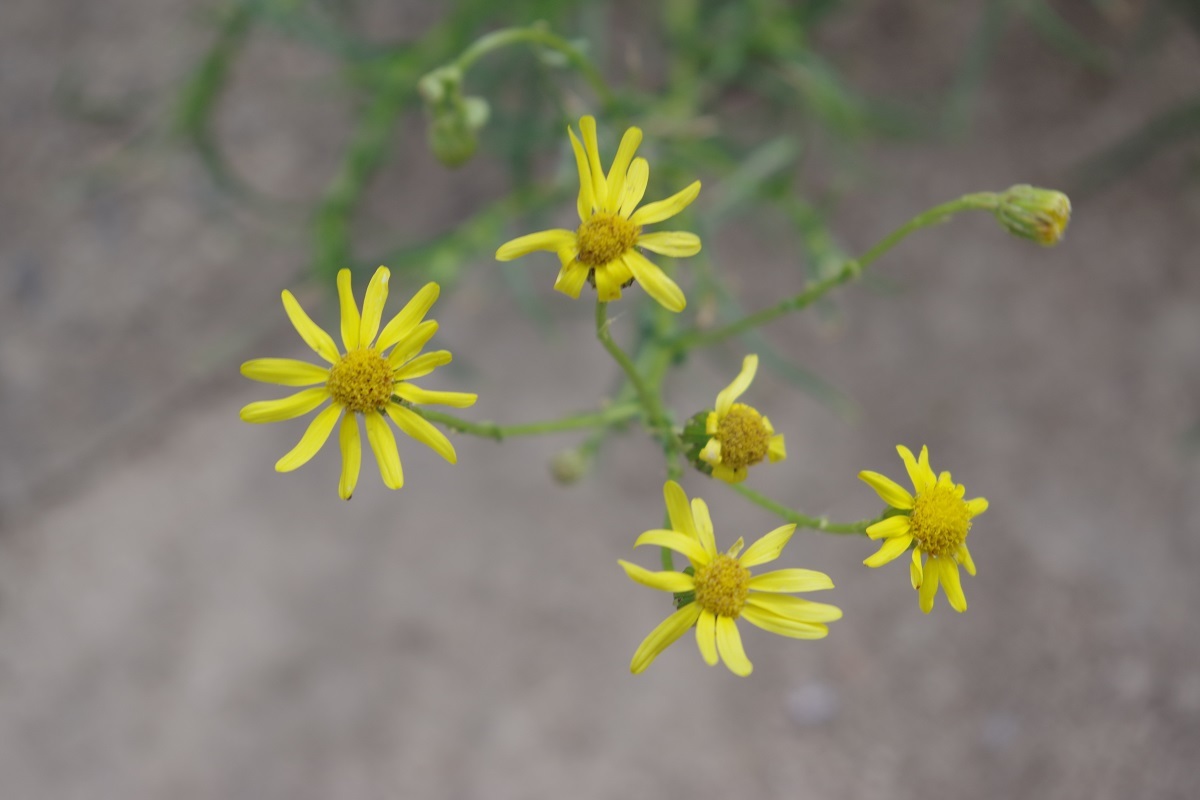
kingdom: Plantae
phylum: Tracheophyta
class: Magnoliopsida
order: Asterales
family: Asteraceae
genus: Senecio
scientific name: Senecio inaequidens
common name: Narrow-leaved ragwort
